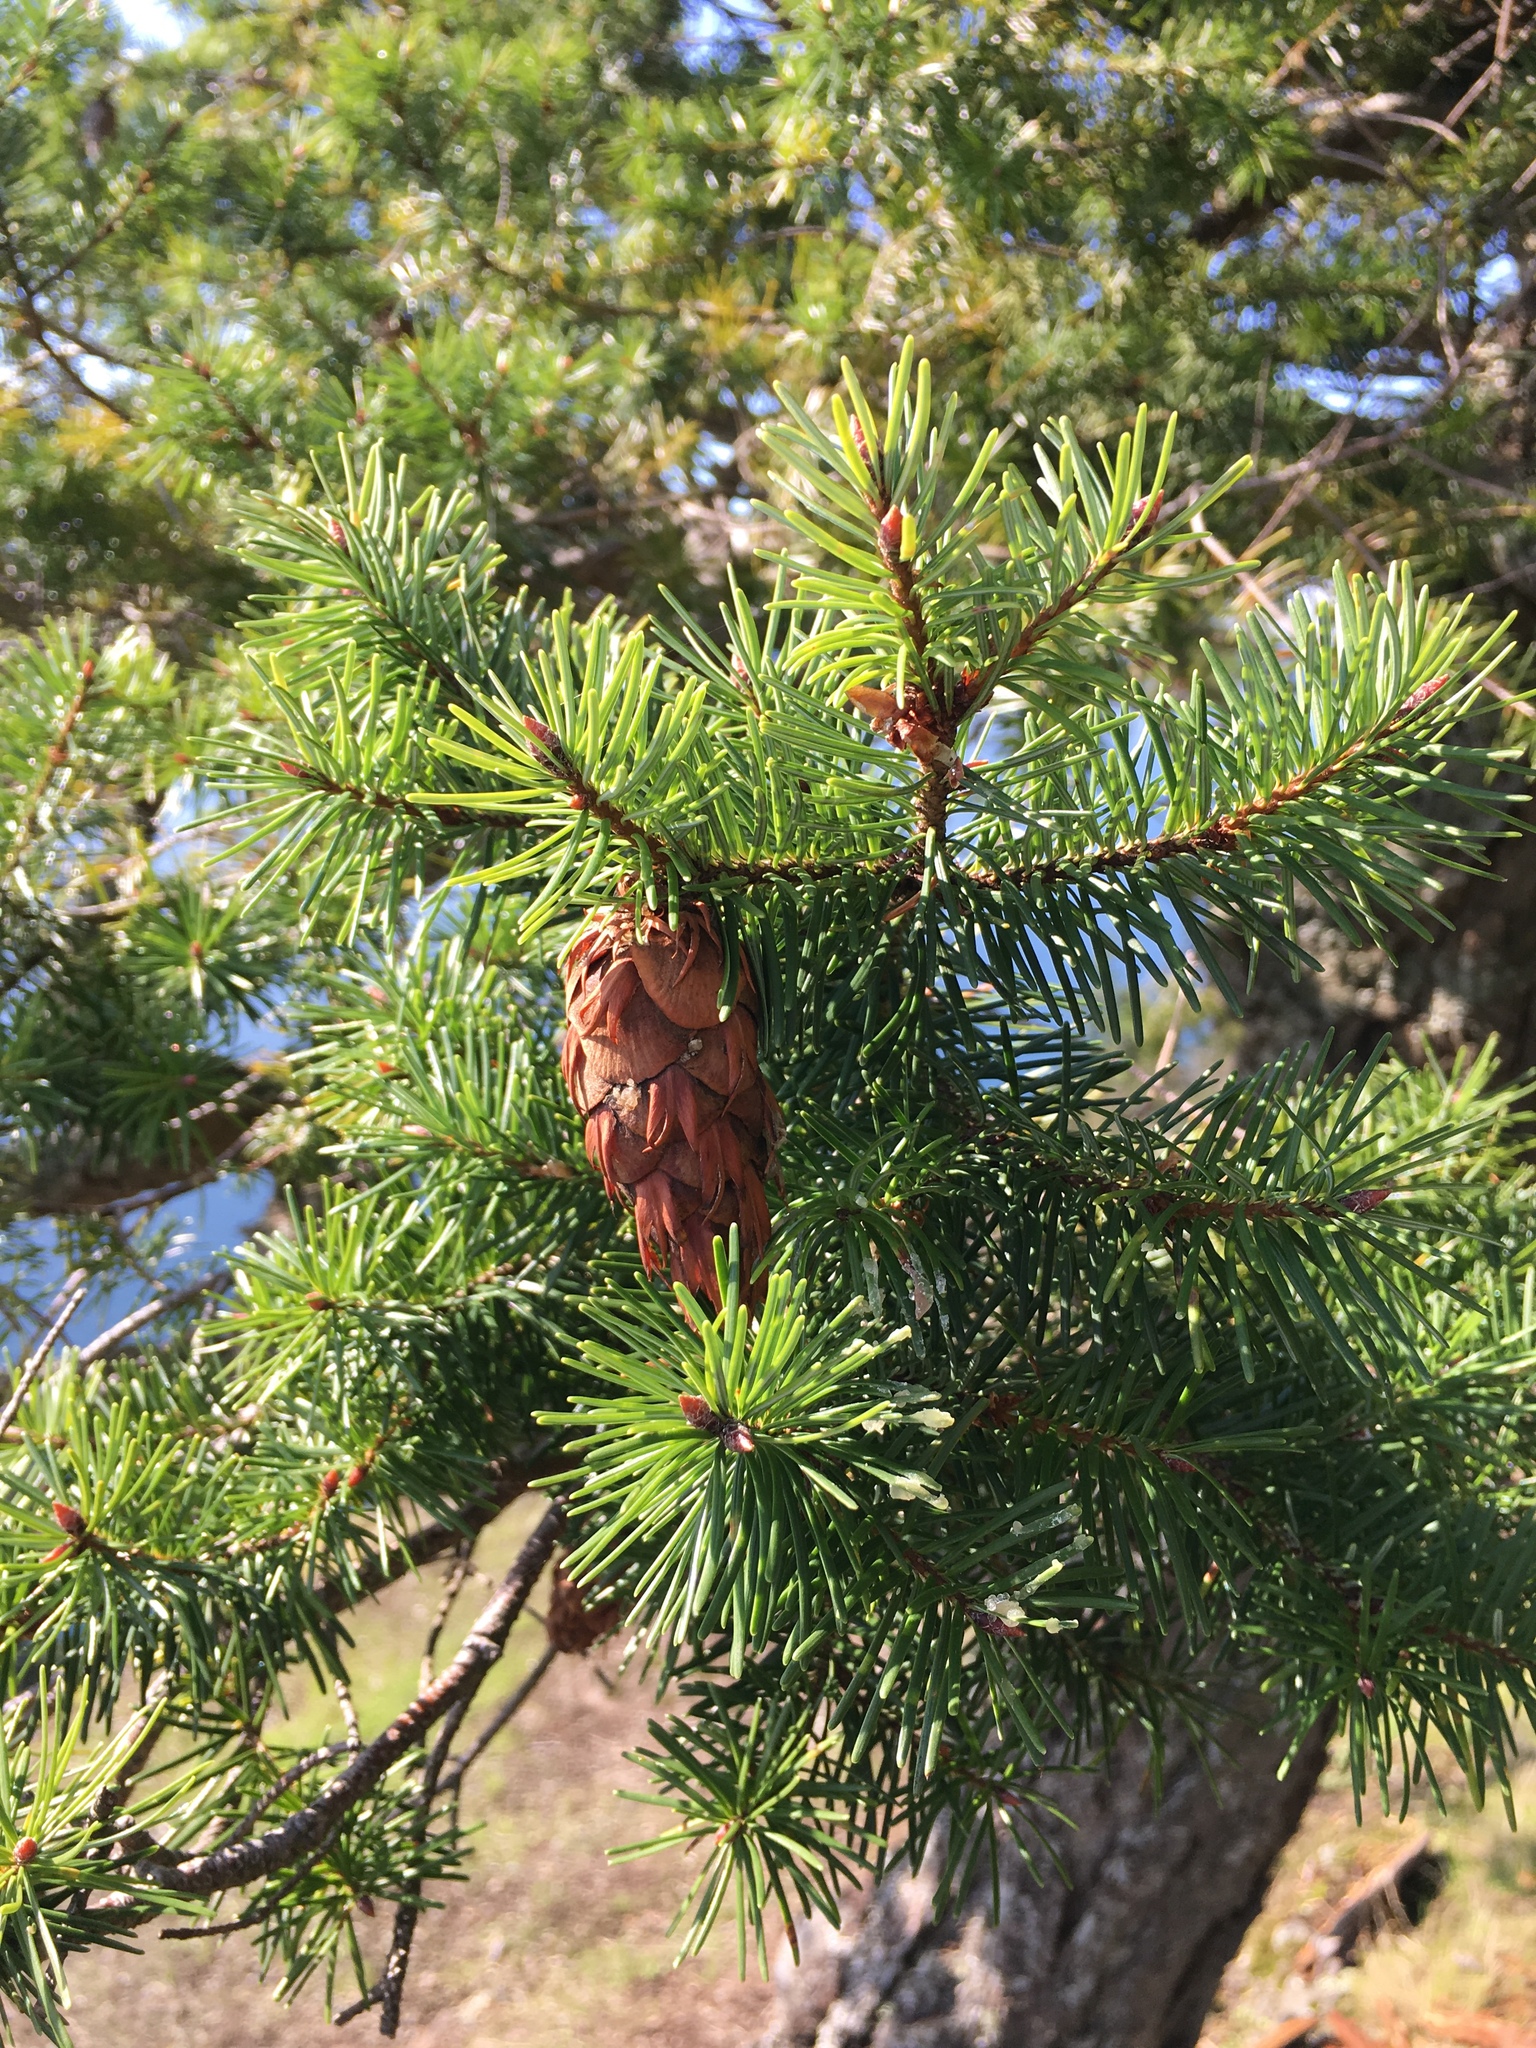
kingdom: Plantae
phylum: Tracheophyta
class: Pinopsida
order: Pinales
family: Pinaceae
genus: Pseudotsuga
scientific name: Pseudotsuga menziesii
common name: Douglas fir
